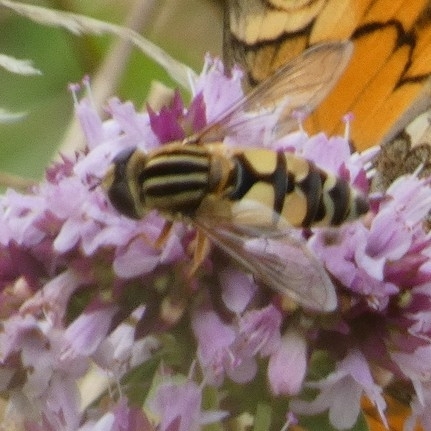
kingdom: Animalia
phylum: Arthropoda
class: Insecta
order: Diptera
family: Syrphidae
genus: Helophilus
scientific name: Helophilus trivittatus
